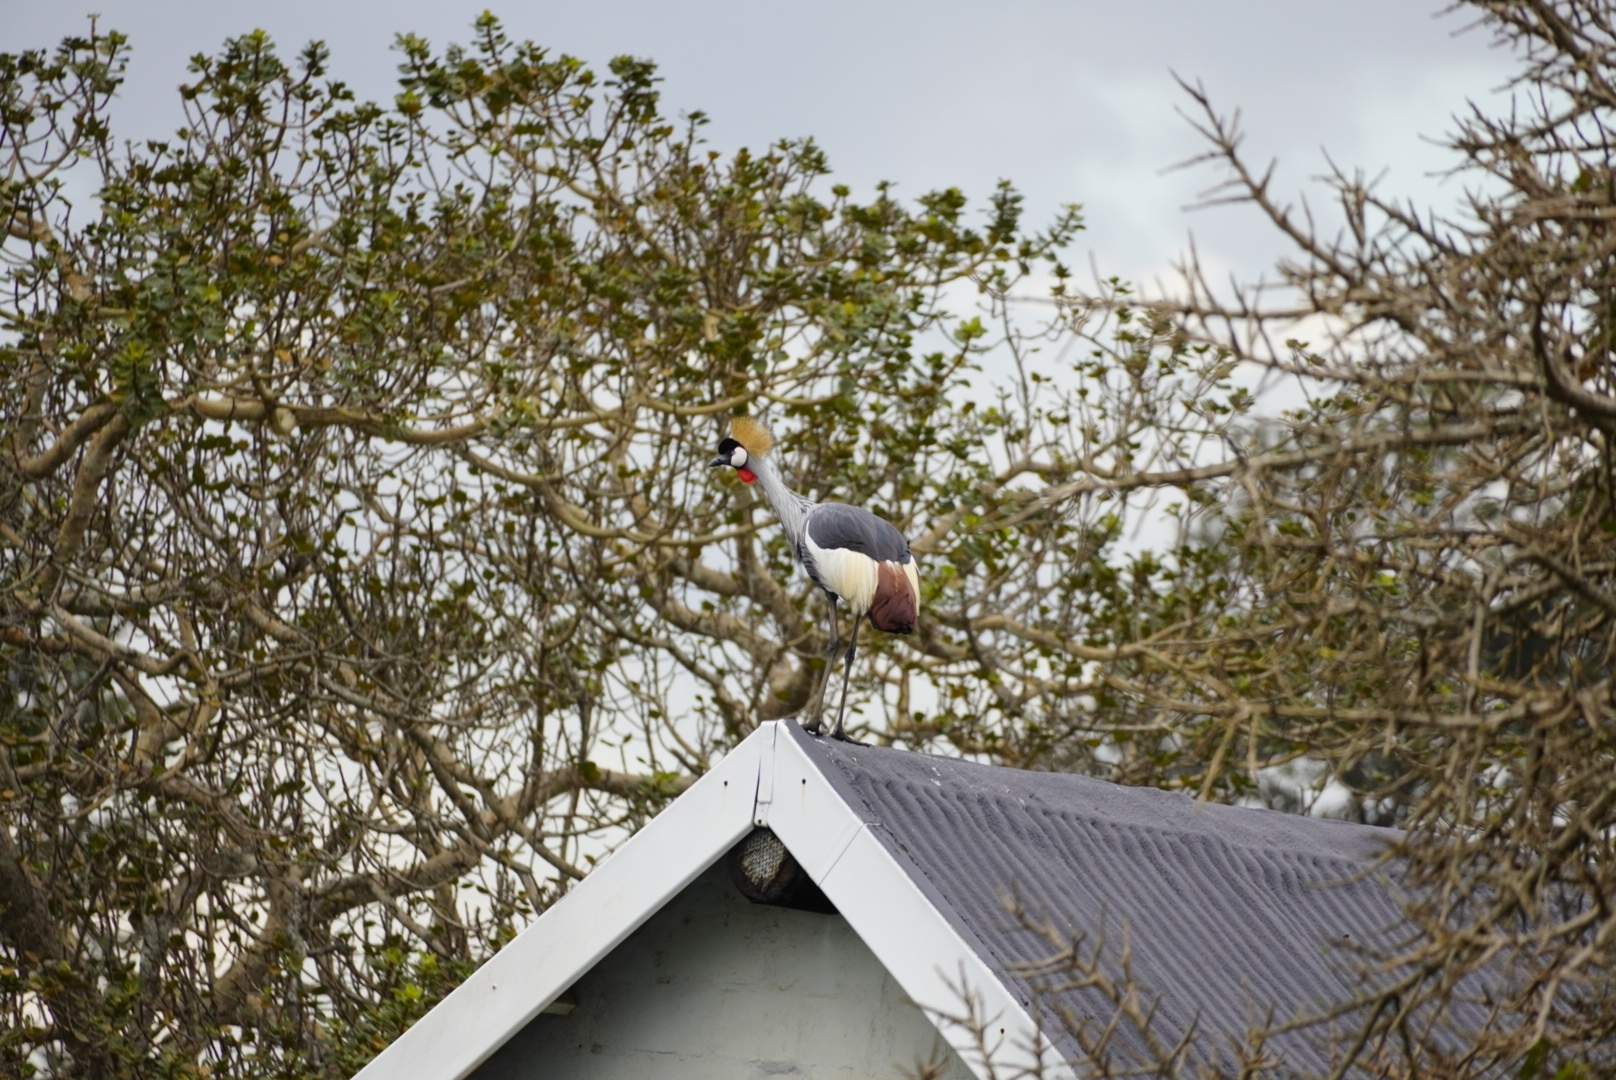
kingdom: Animalia
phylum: Chordata
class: Aves
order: Gruiformes
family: Gruidae
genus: Balearica
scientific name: Balearica regulorum
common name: Grey crowned crane
